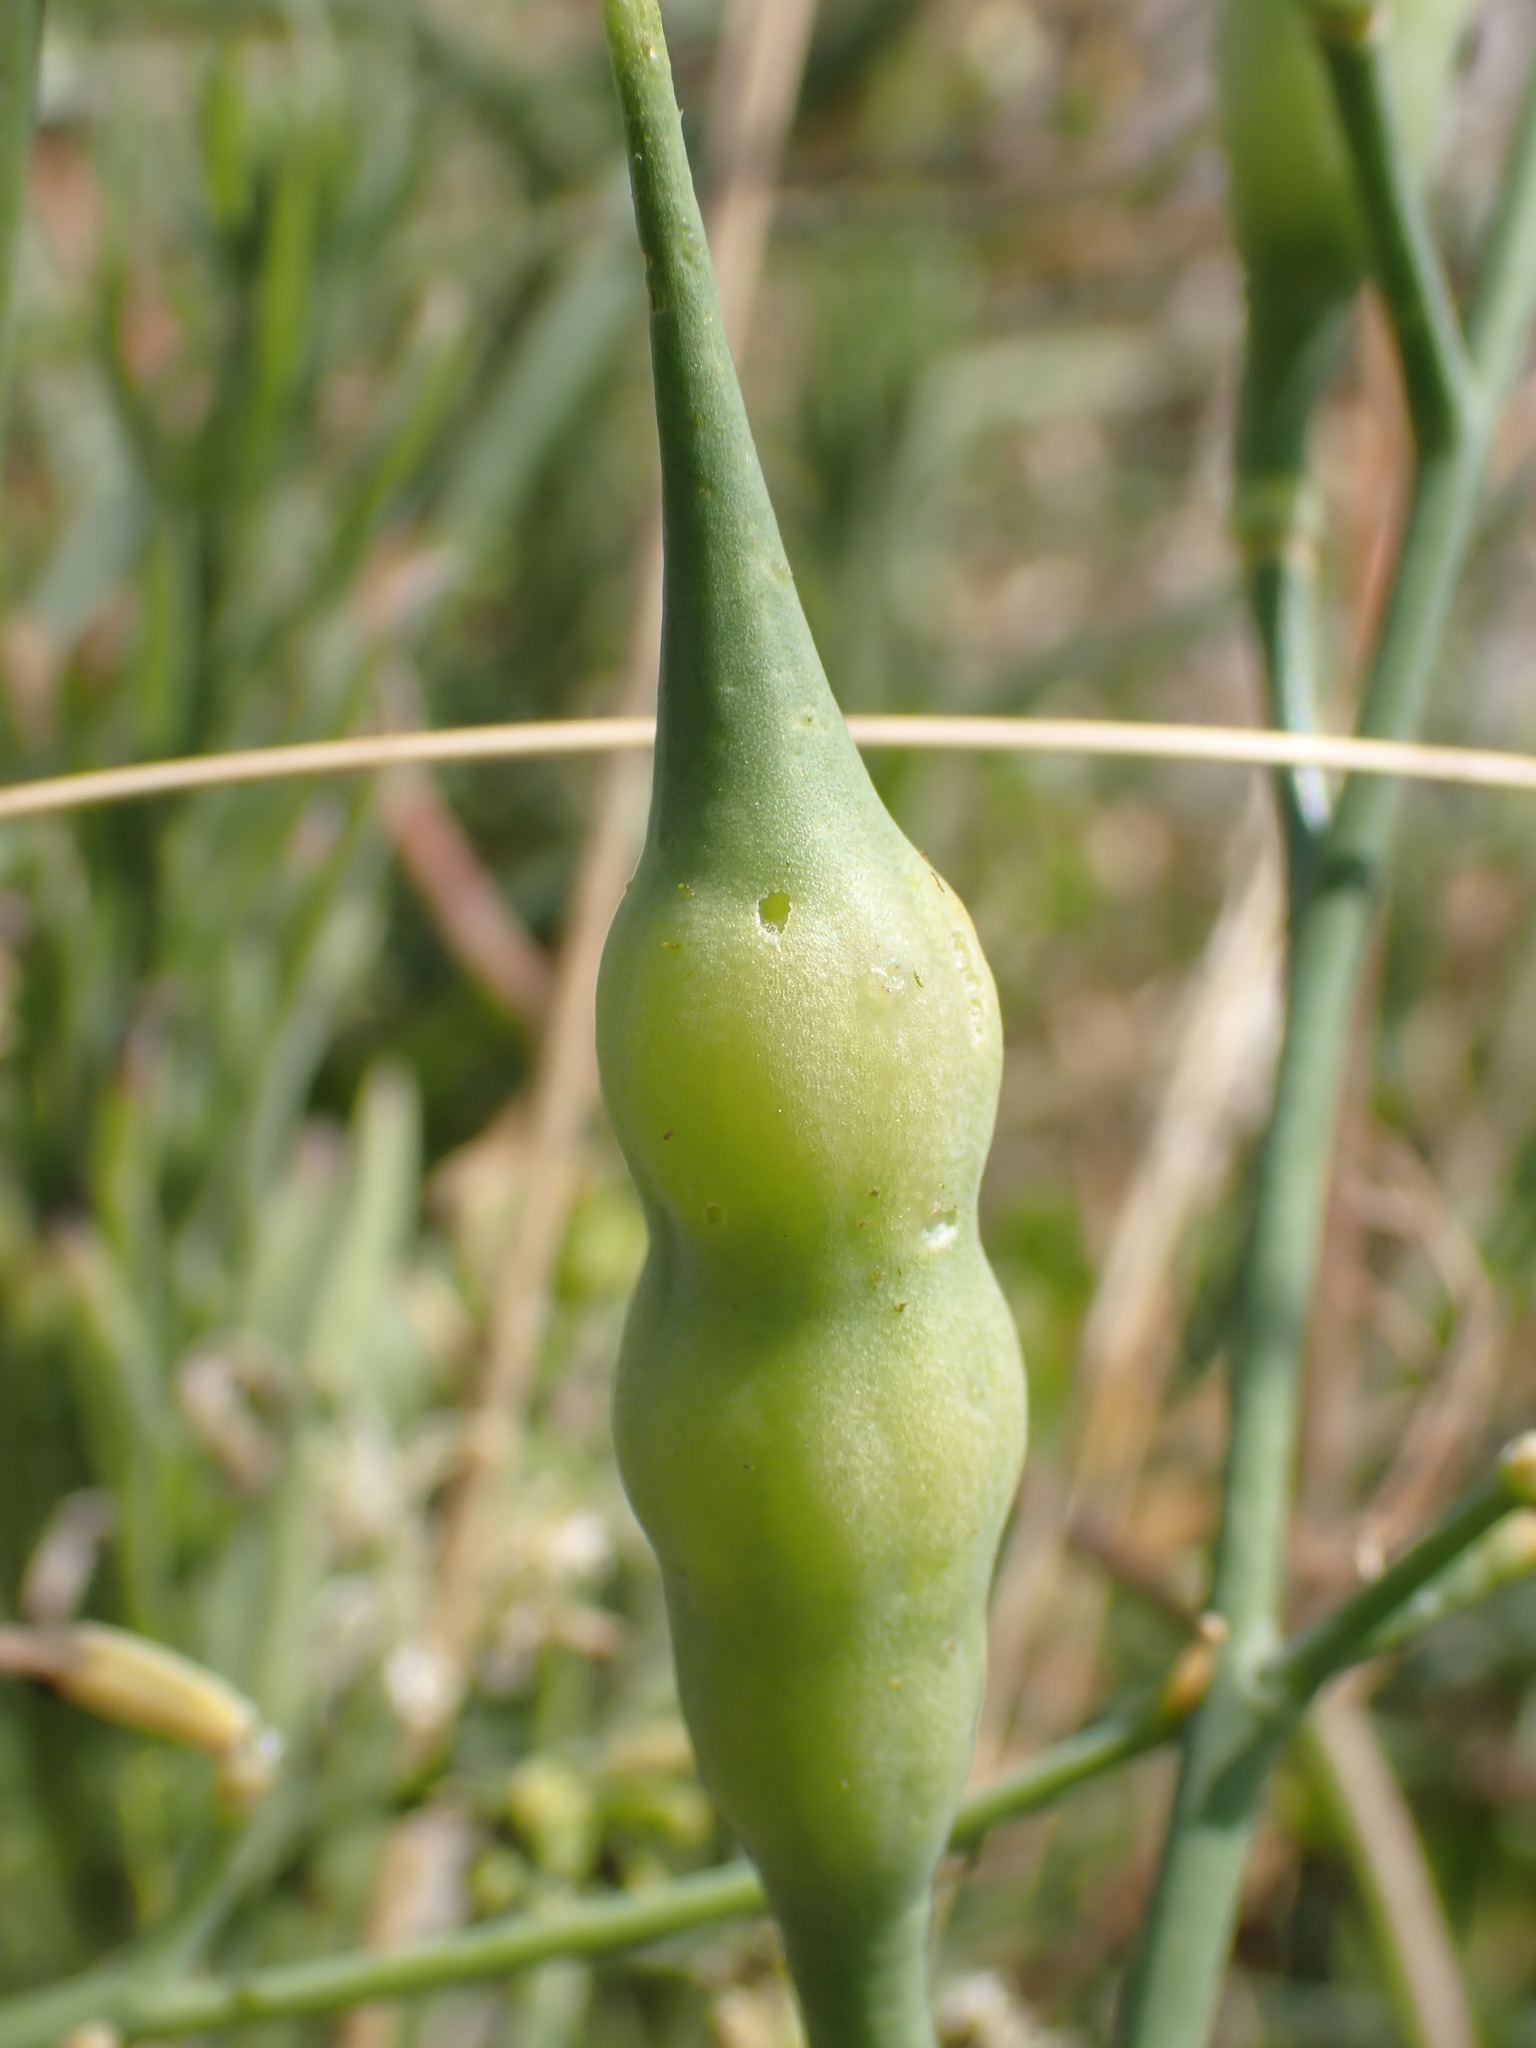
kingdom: Plantae
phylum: Tracheophyta
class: Magnoliopsida
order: Brassicales
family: Brassicaceae
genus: Raphanus
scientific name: Raphanus raphanistrum
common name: Wild radish
